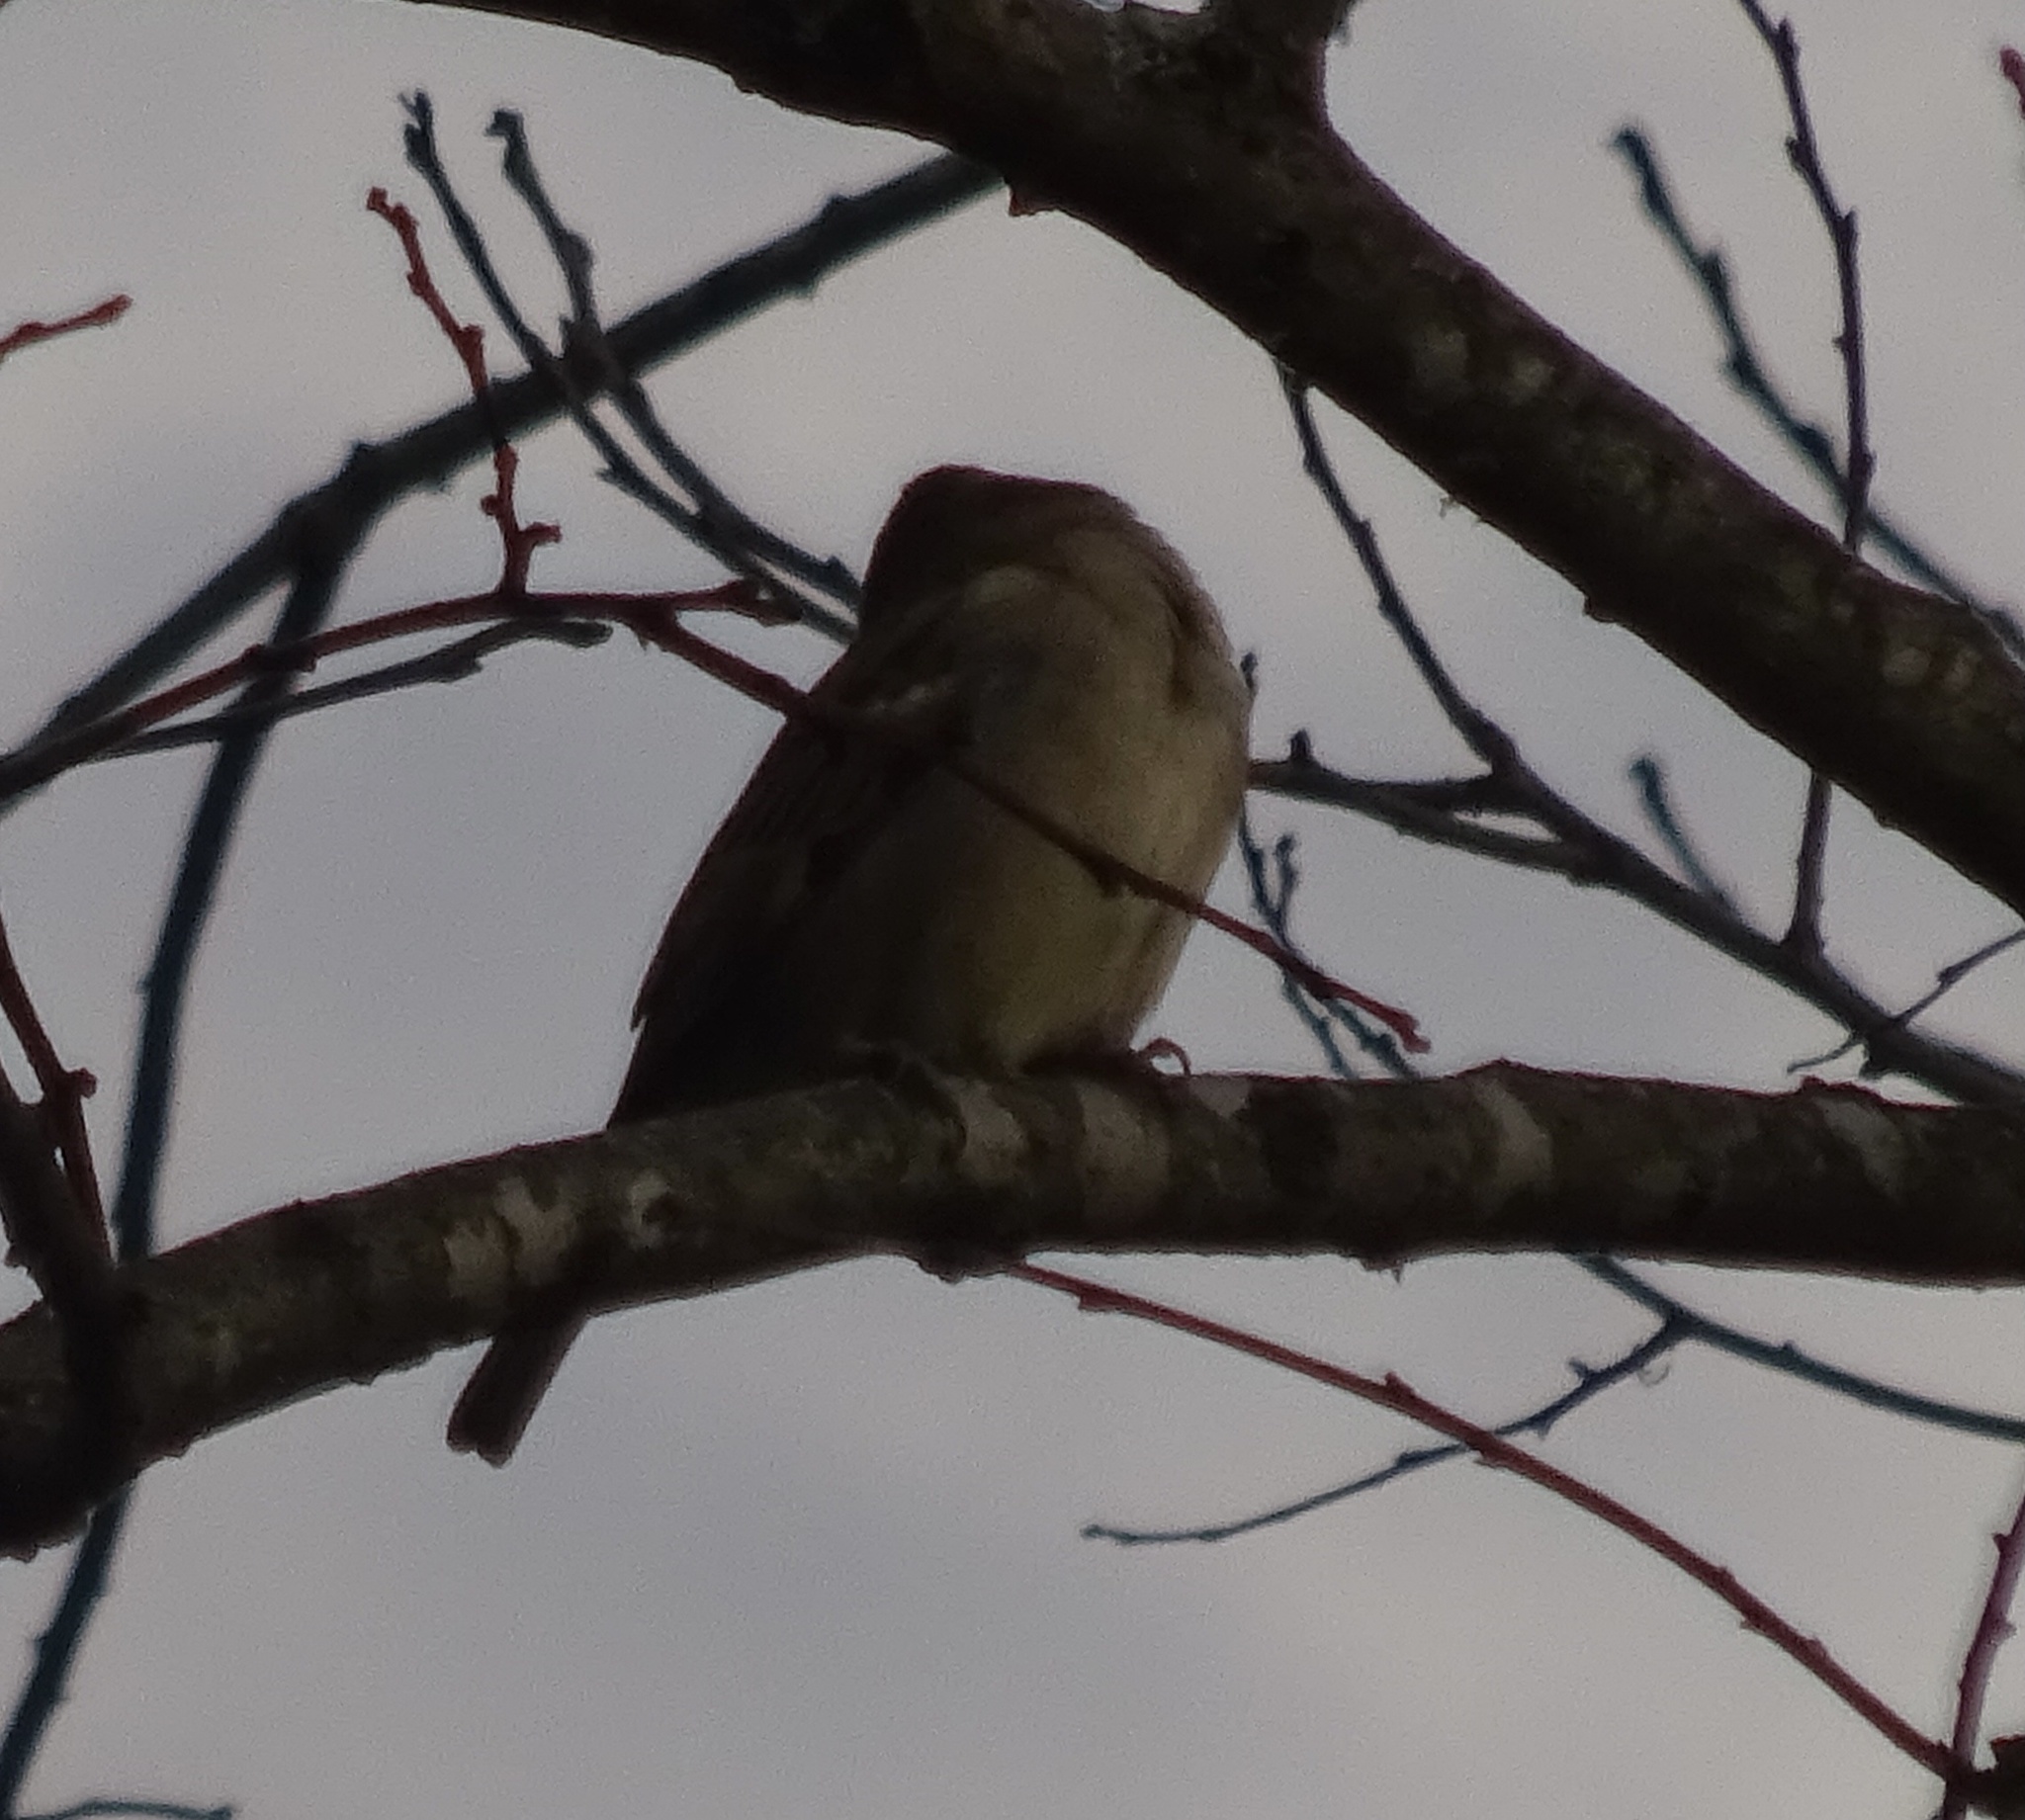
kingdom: Animalia
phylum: Chordata
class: Aves
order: Passeriformes
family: Passeridae
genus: Passer
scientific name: Passer domesticus
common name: House sparrow
